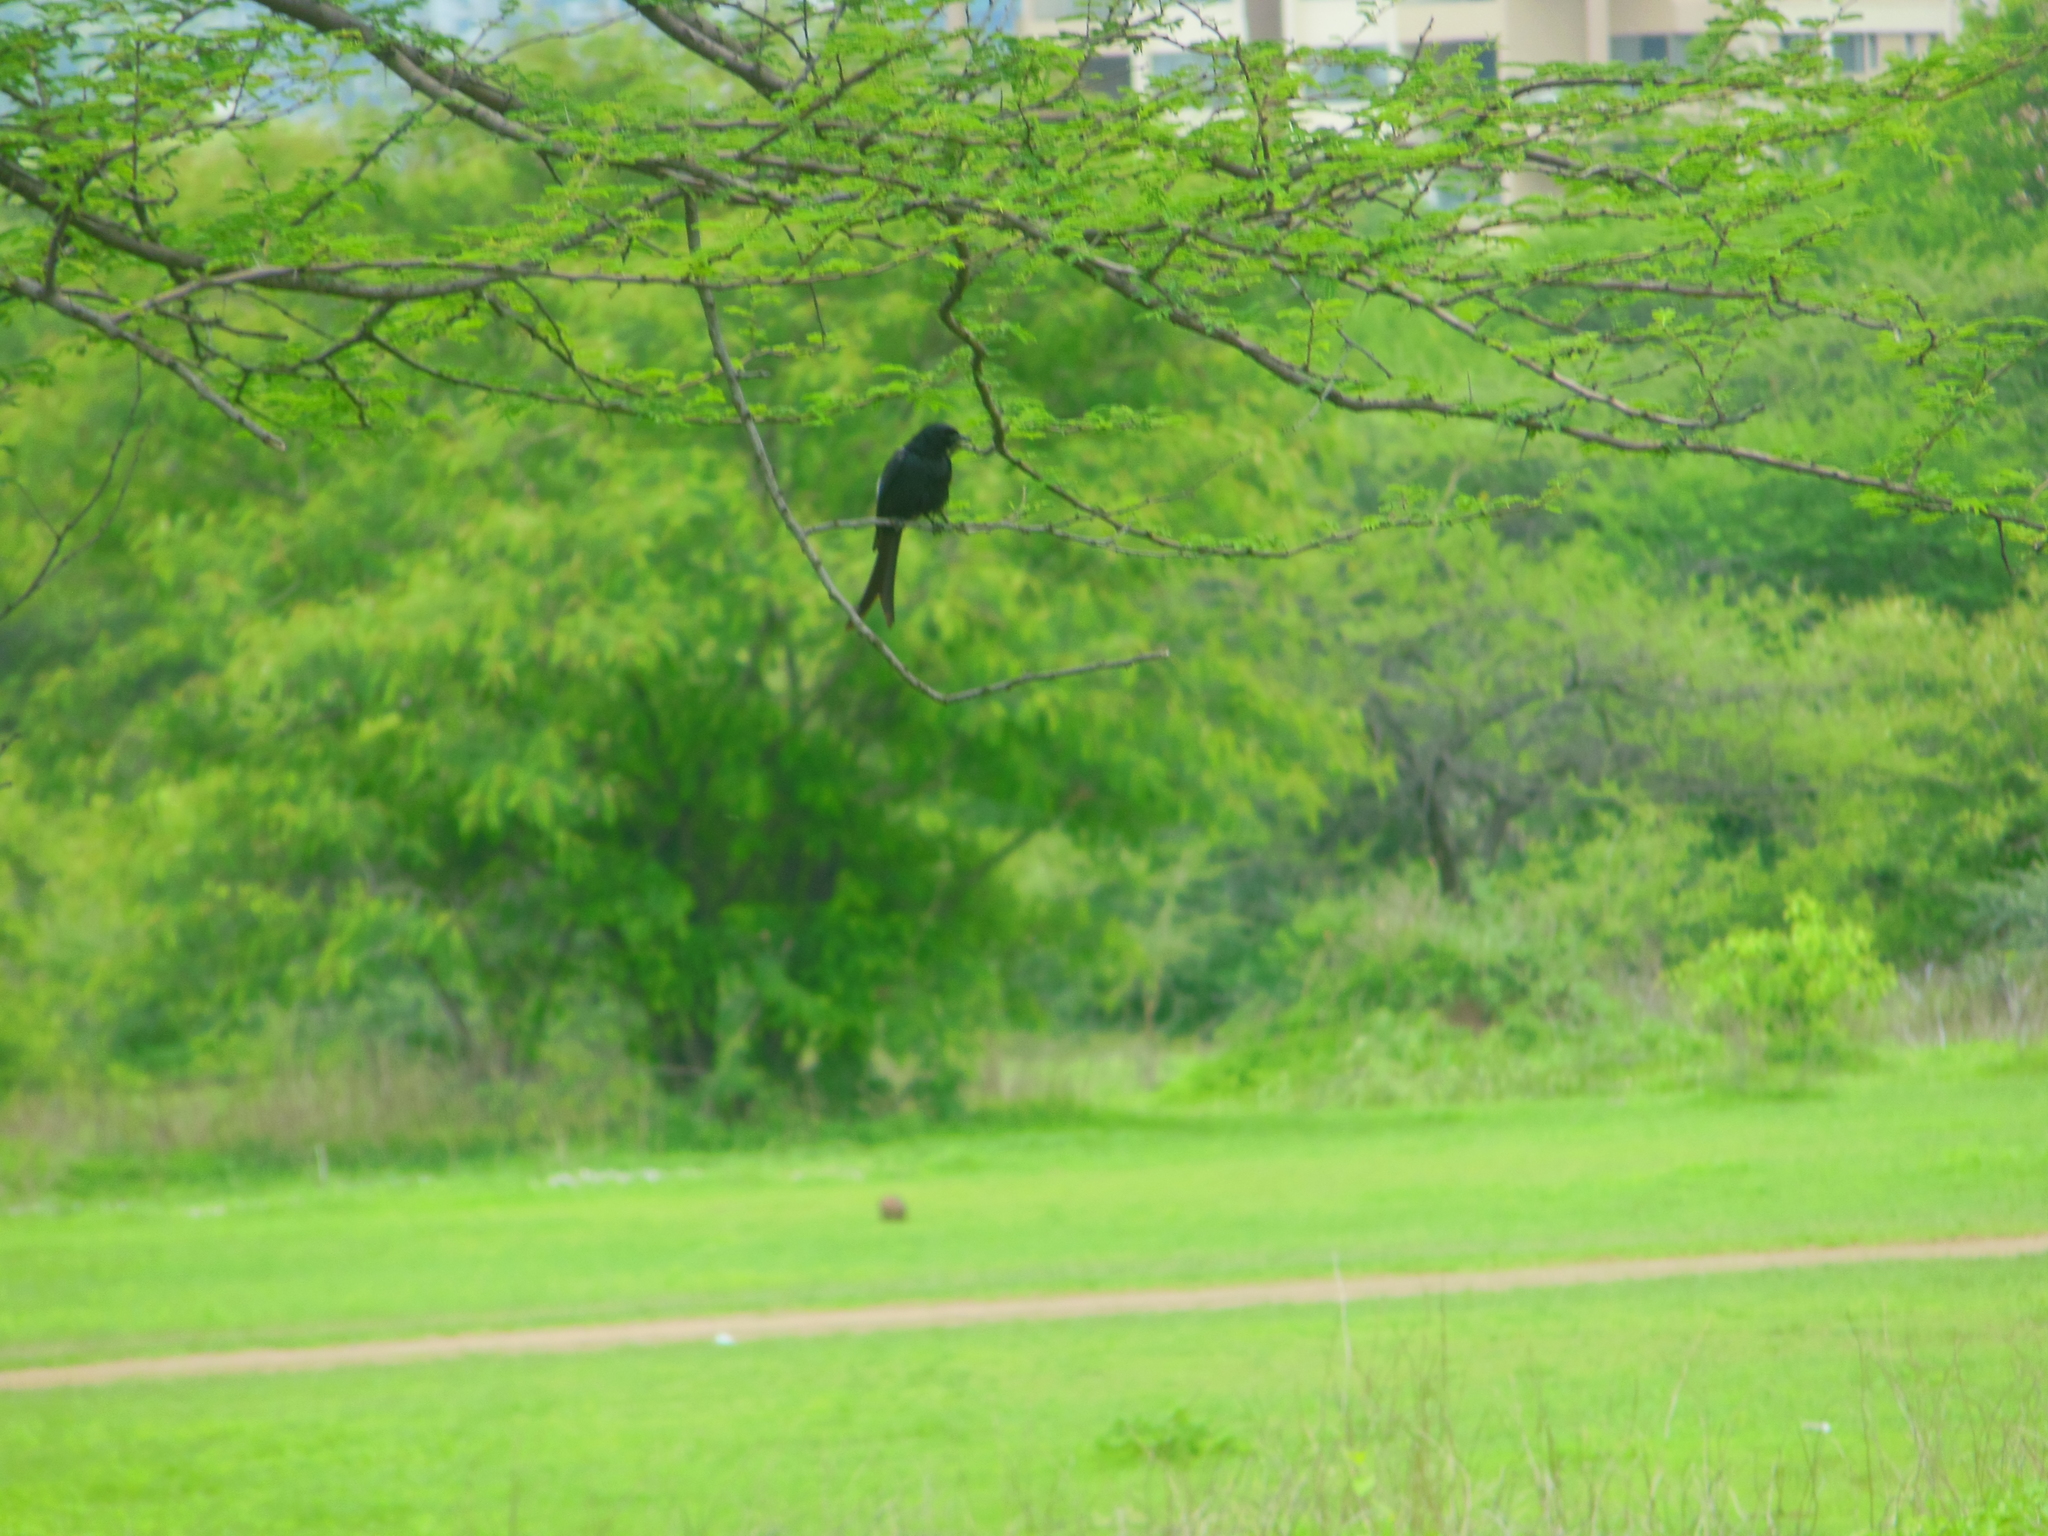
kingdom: Animalia
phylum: Chordata
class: Aves
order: Passeriformes
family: Dicruridae
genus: Dicrurus
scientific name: Dicrurus macrocercus
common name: Black drongo
